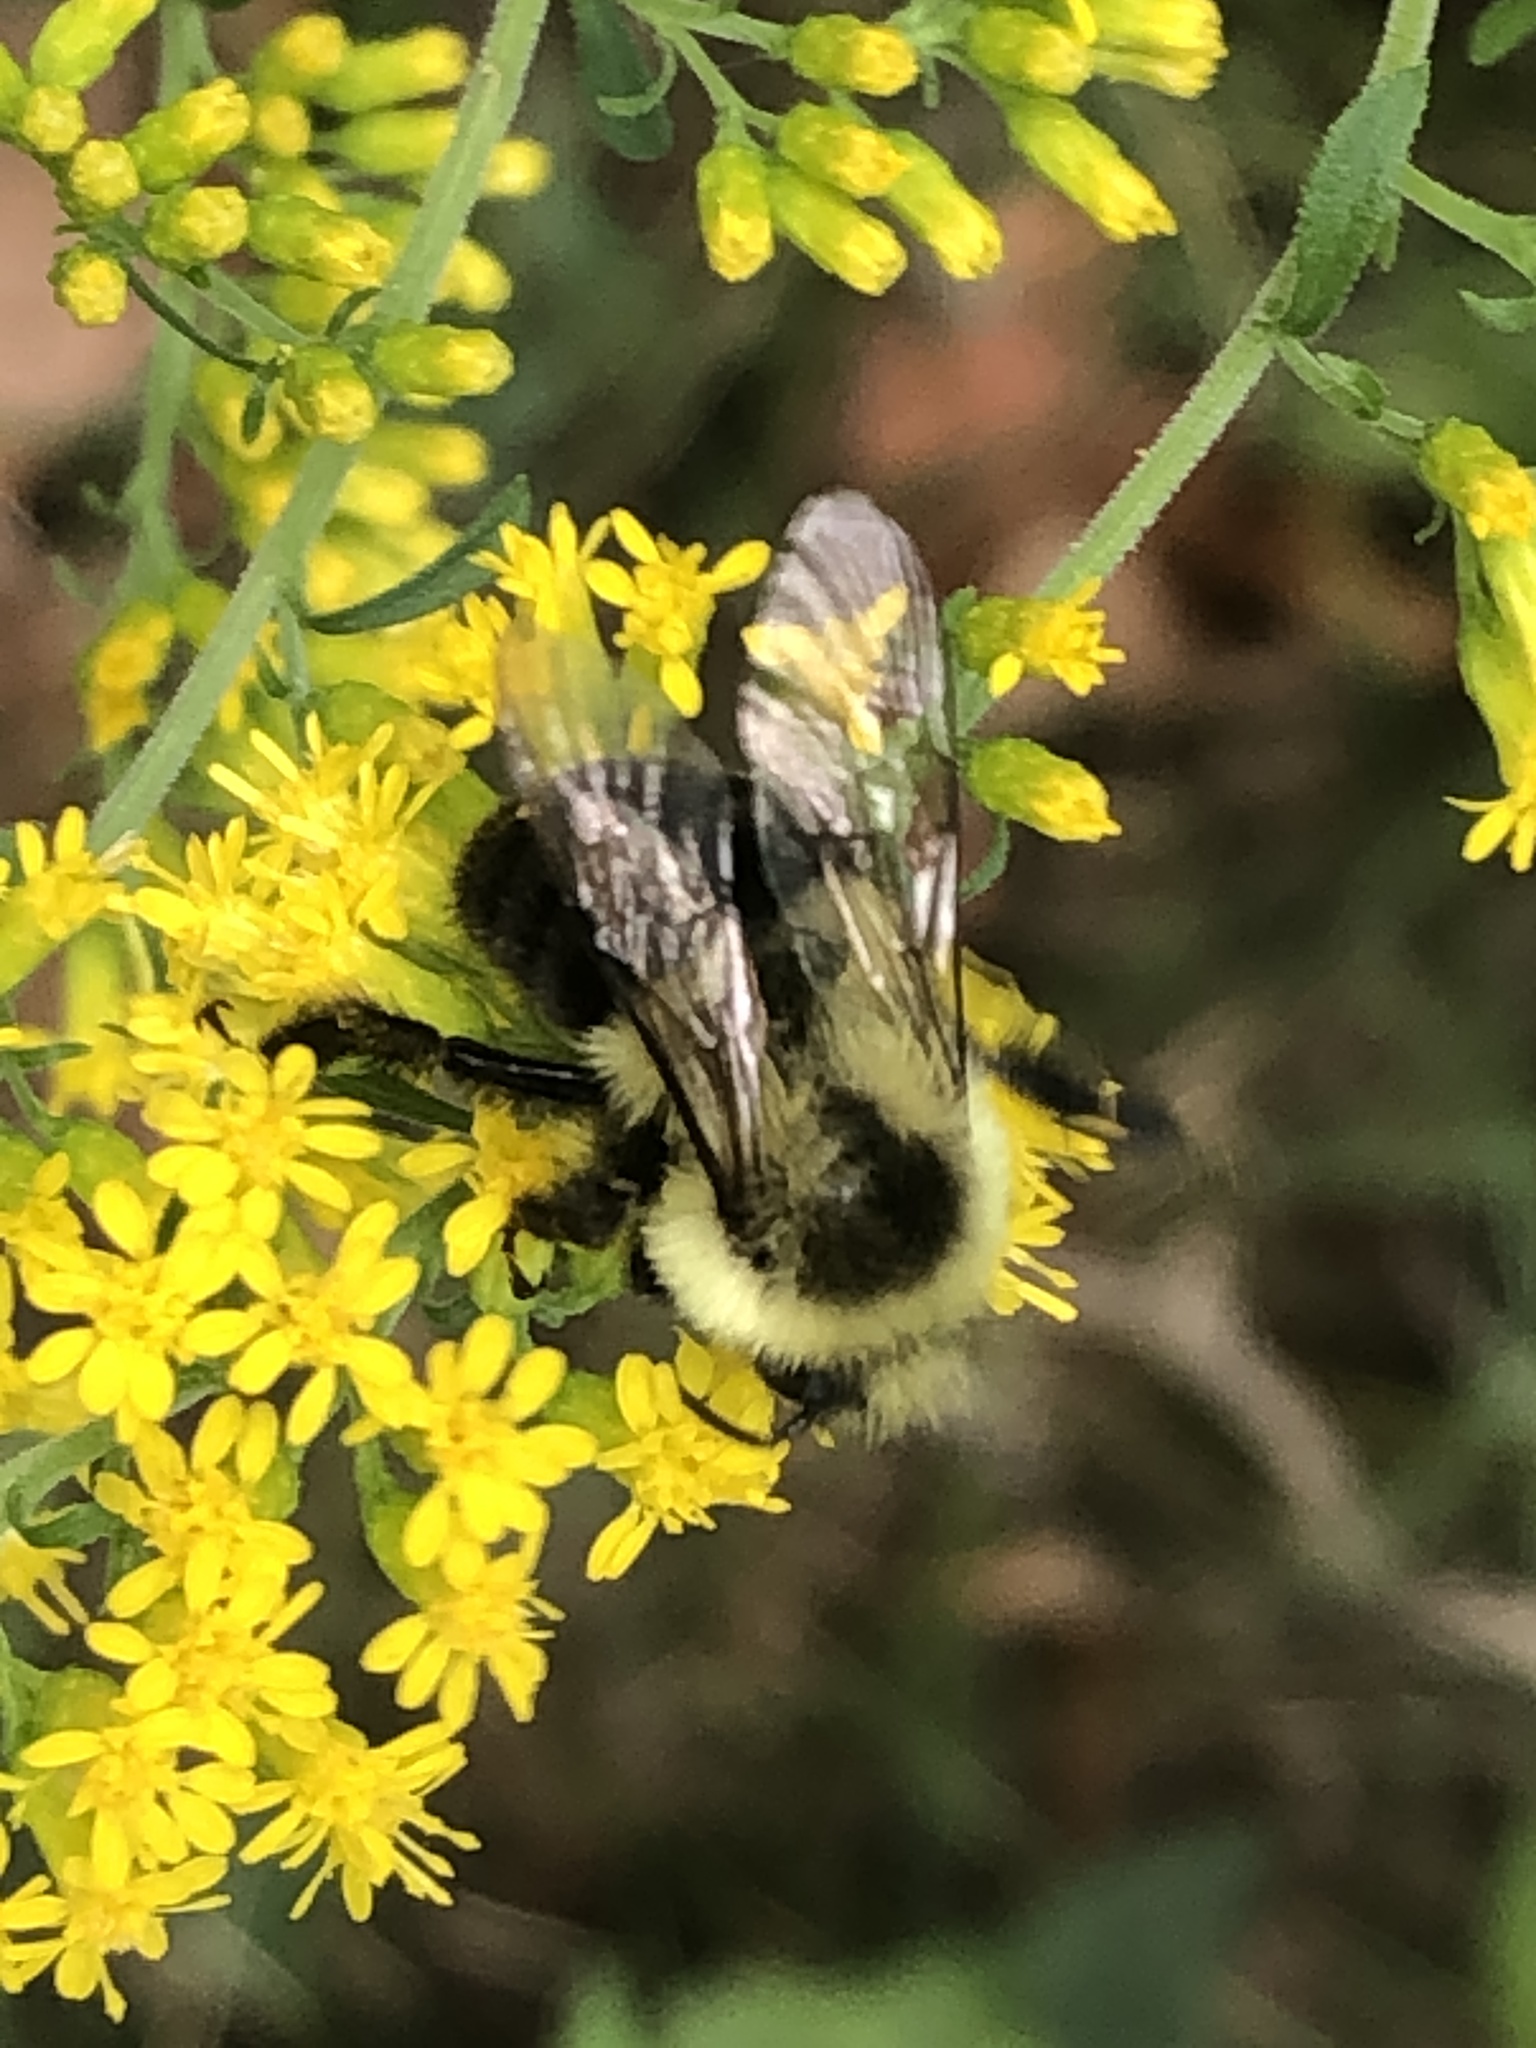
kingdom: Animalia
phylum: Arthropoda
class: Insecta
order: Hymenoptera
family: Apidae
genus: Bombus
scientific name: Bombus impatiens
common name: Common eastern bumble bee
